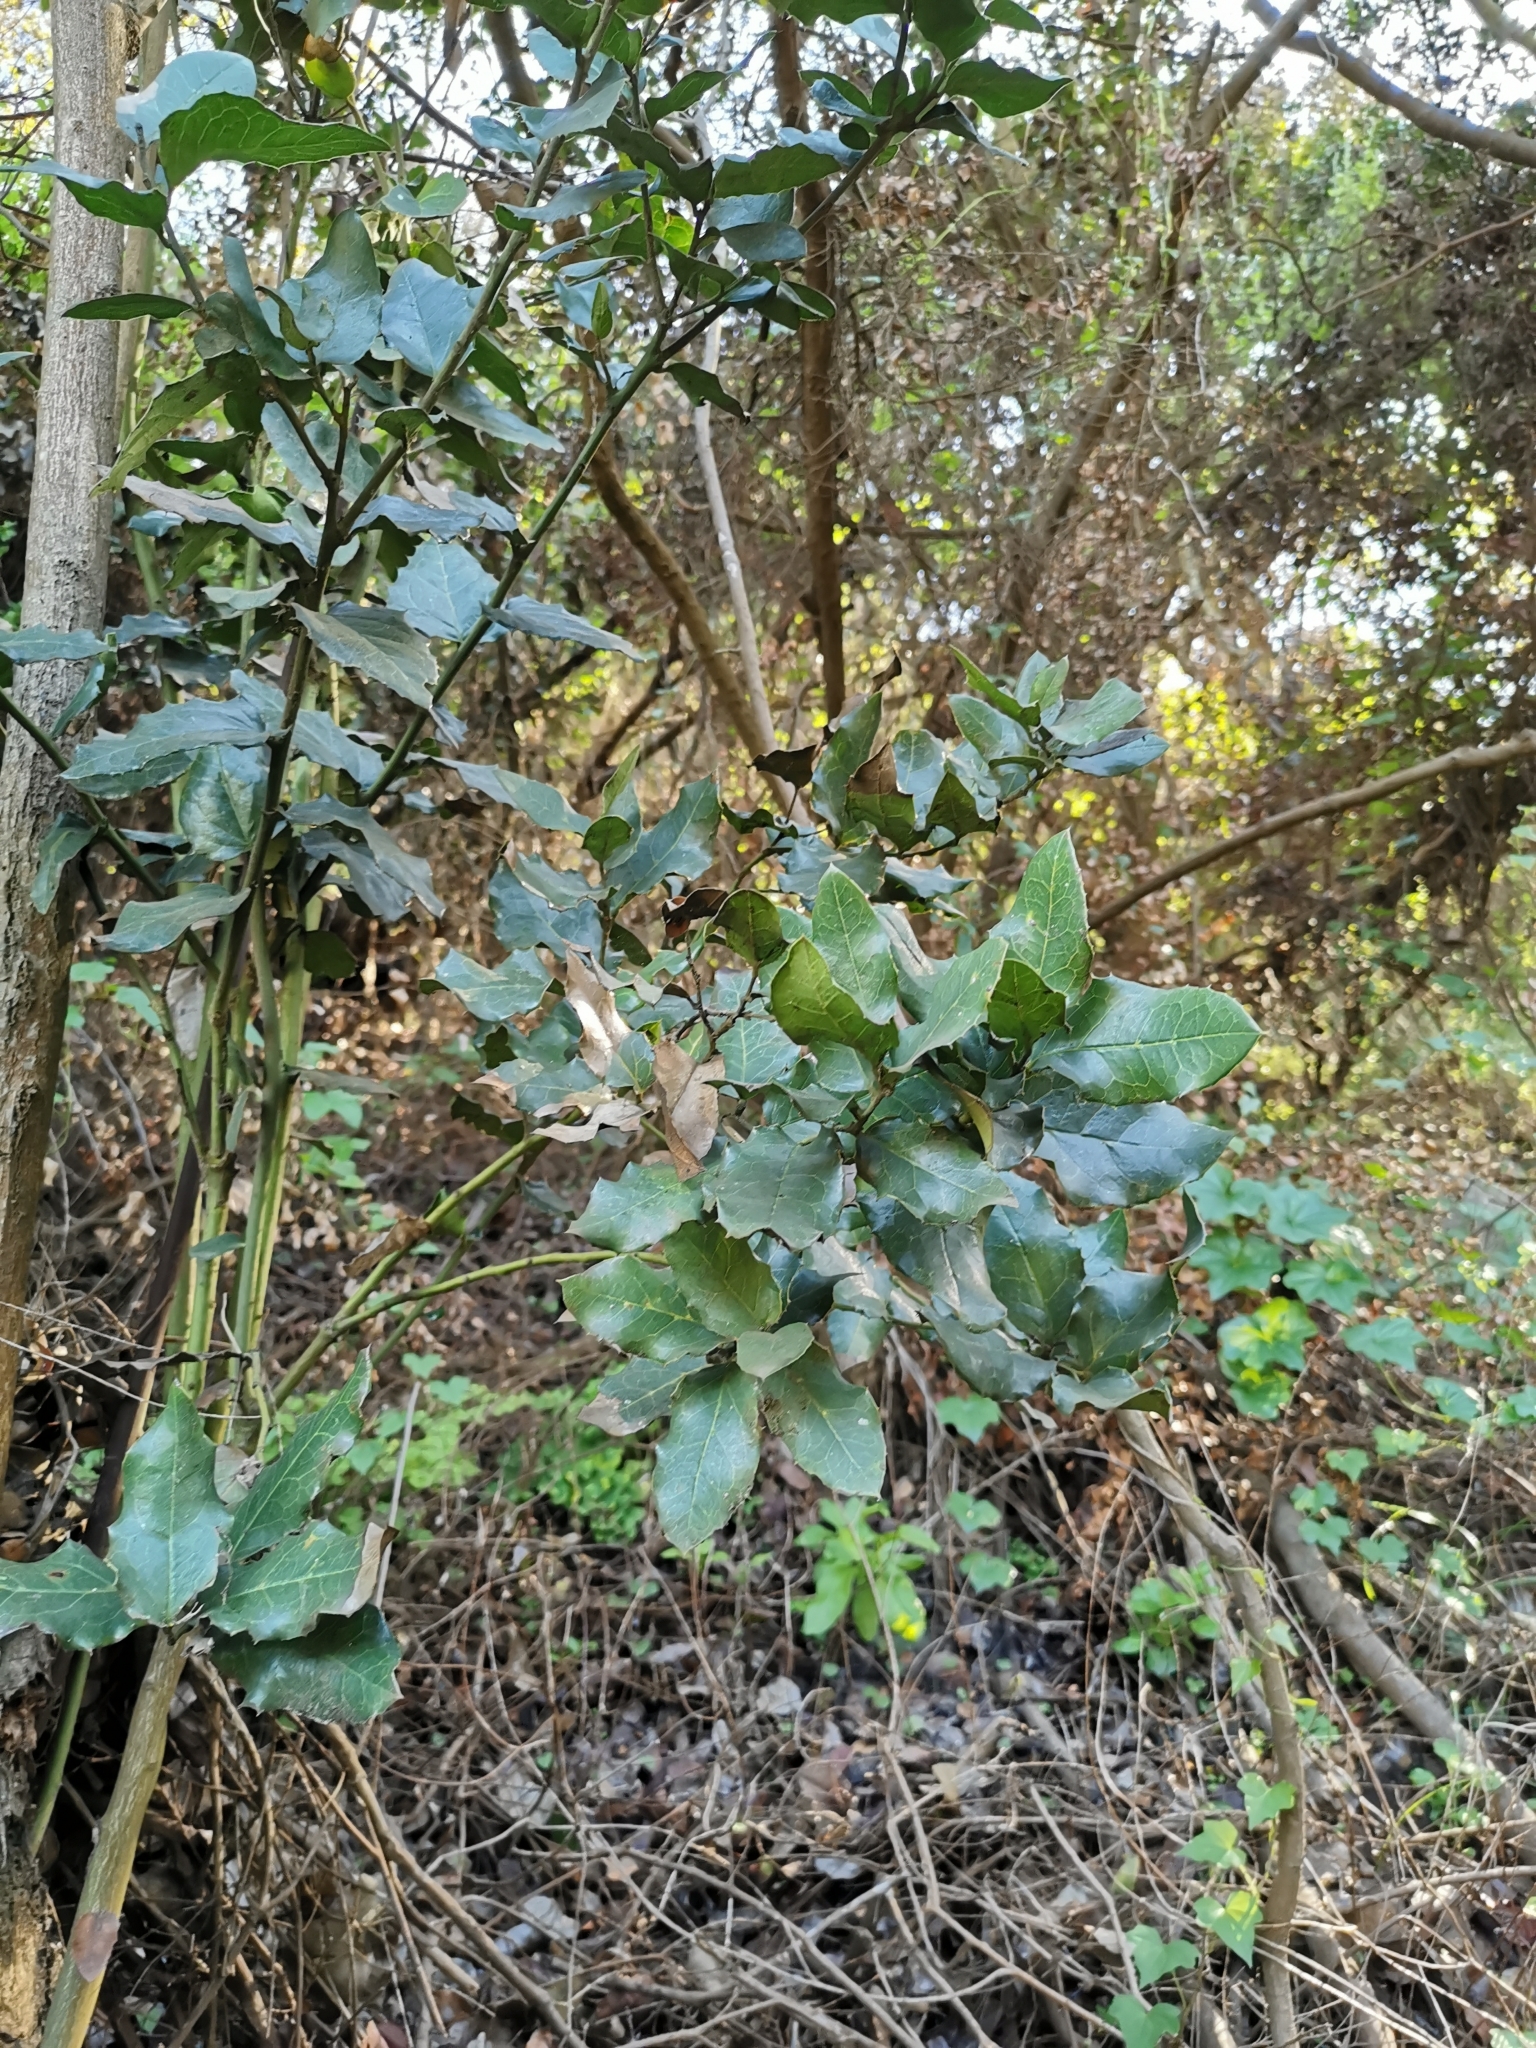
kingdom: Plantae
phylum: Tracheophyta
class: Magnoliopsida
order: Cardiopteridales
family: Cardiopteridaceae
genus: Citronella
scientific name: Citronella mucronata
